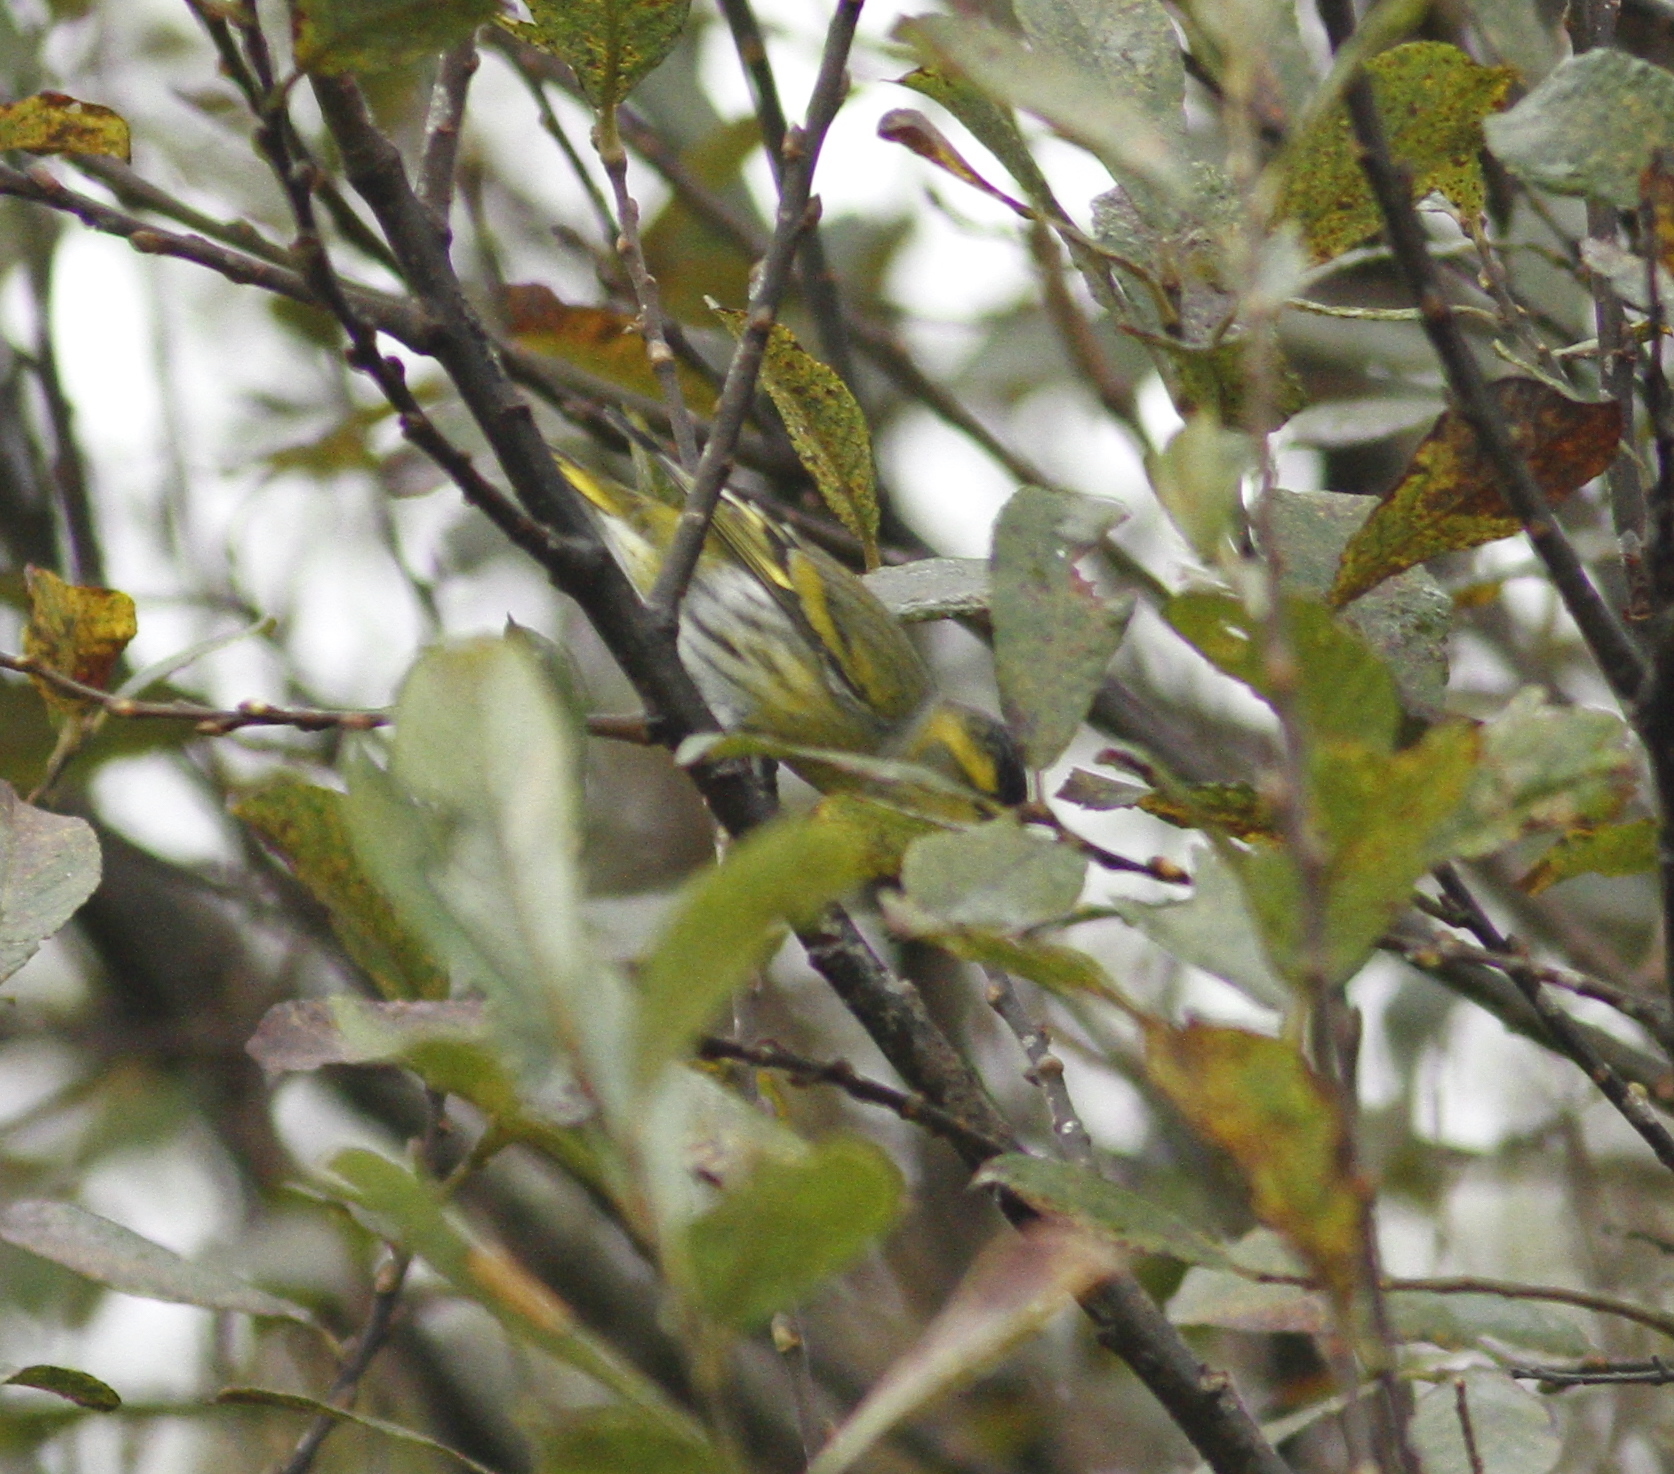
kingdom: Animalia
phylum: Chordata
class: Aves
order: Passeriformes
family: Fringillidae
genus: Spinus
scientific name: Spinus spinus
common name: Eurasian siskin
